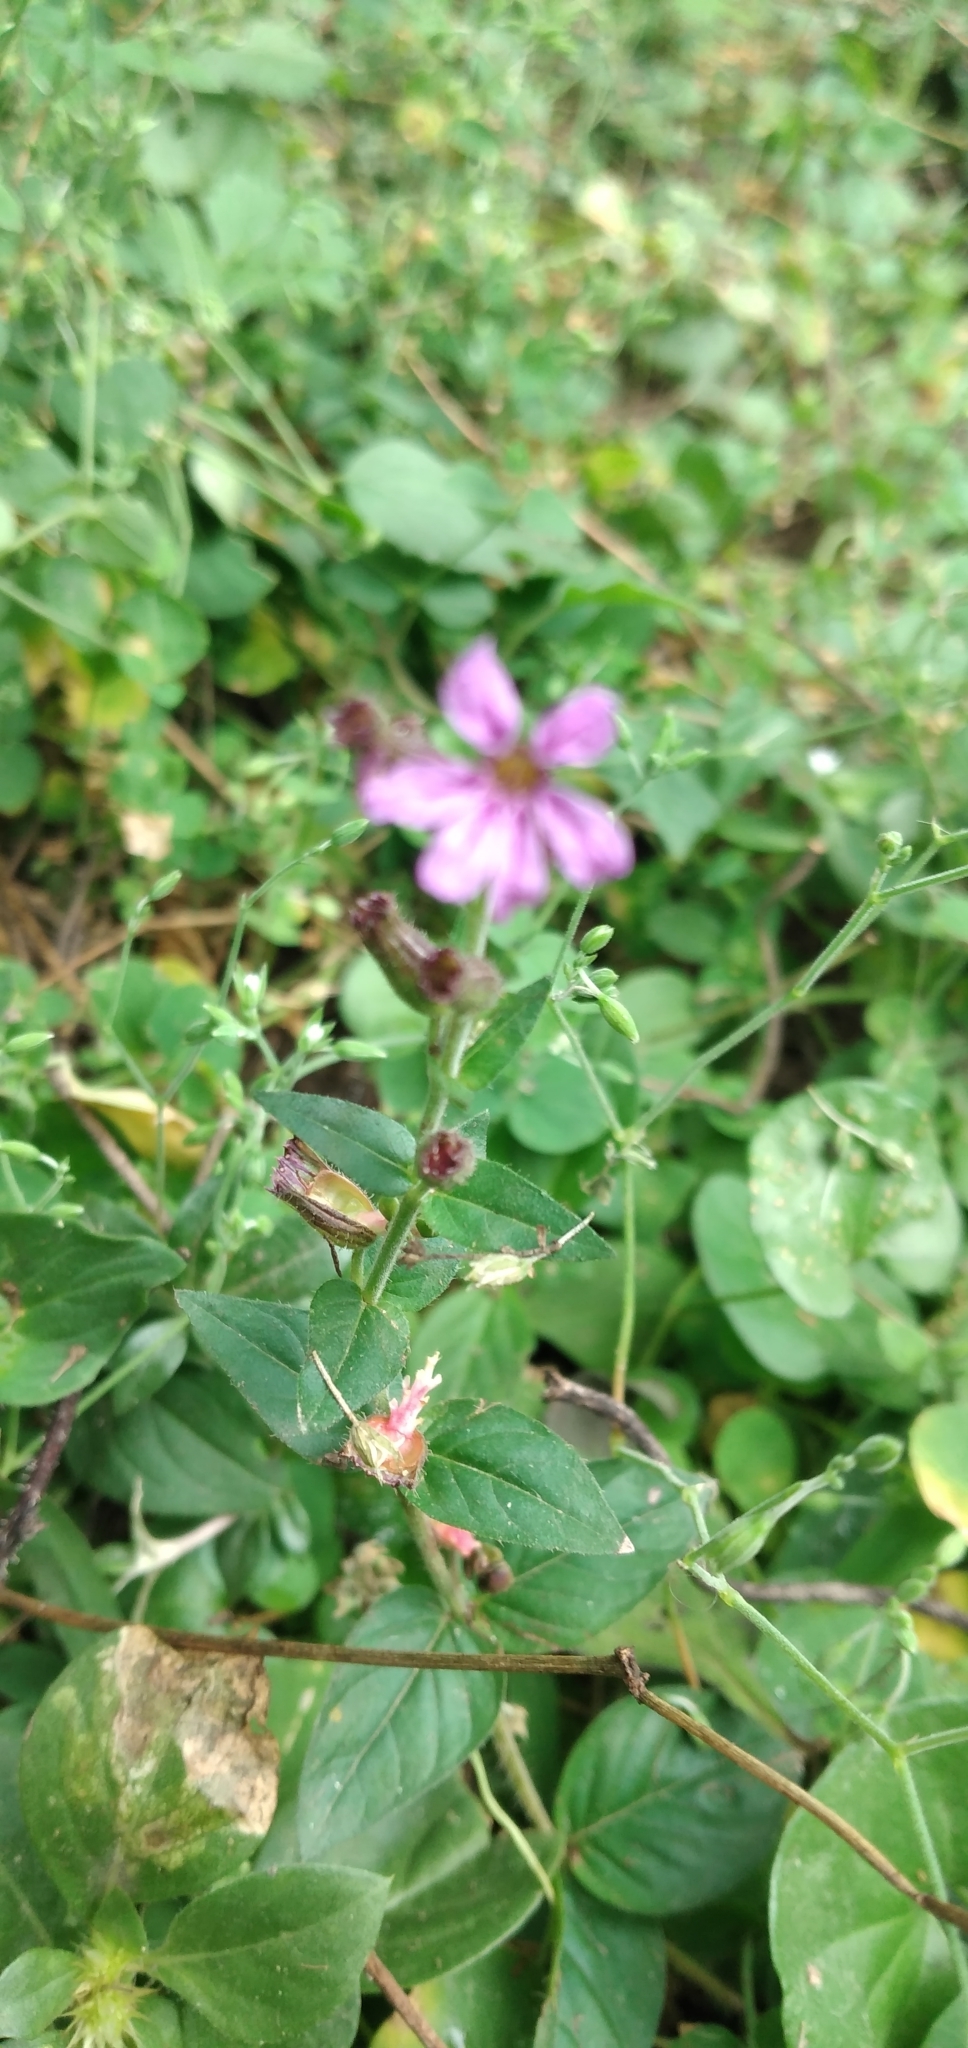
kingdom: Plantae
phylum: Tracheophyta
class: Magnoliopsida
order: Myrtales
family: Lythraceae
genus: Cuphea
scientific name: Cuphea racemosa
